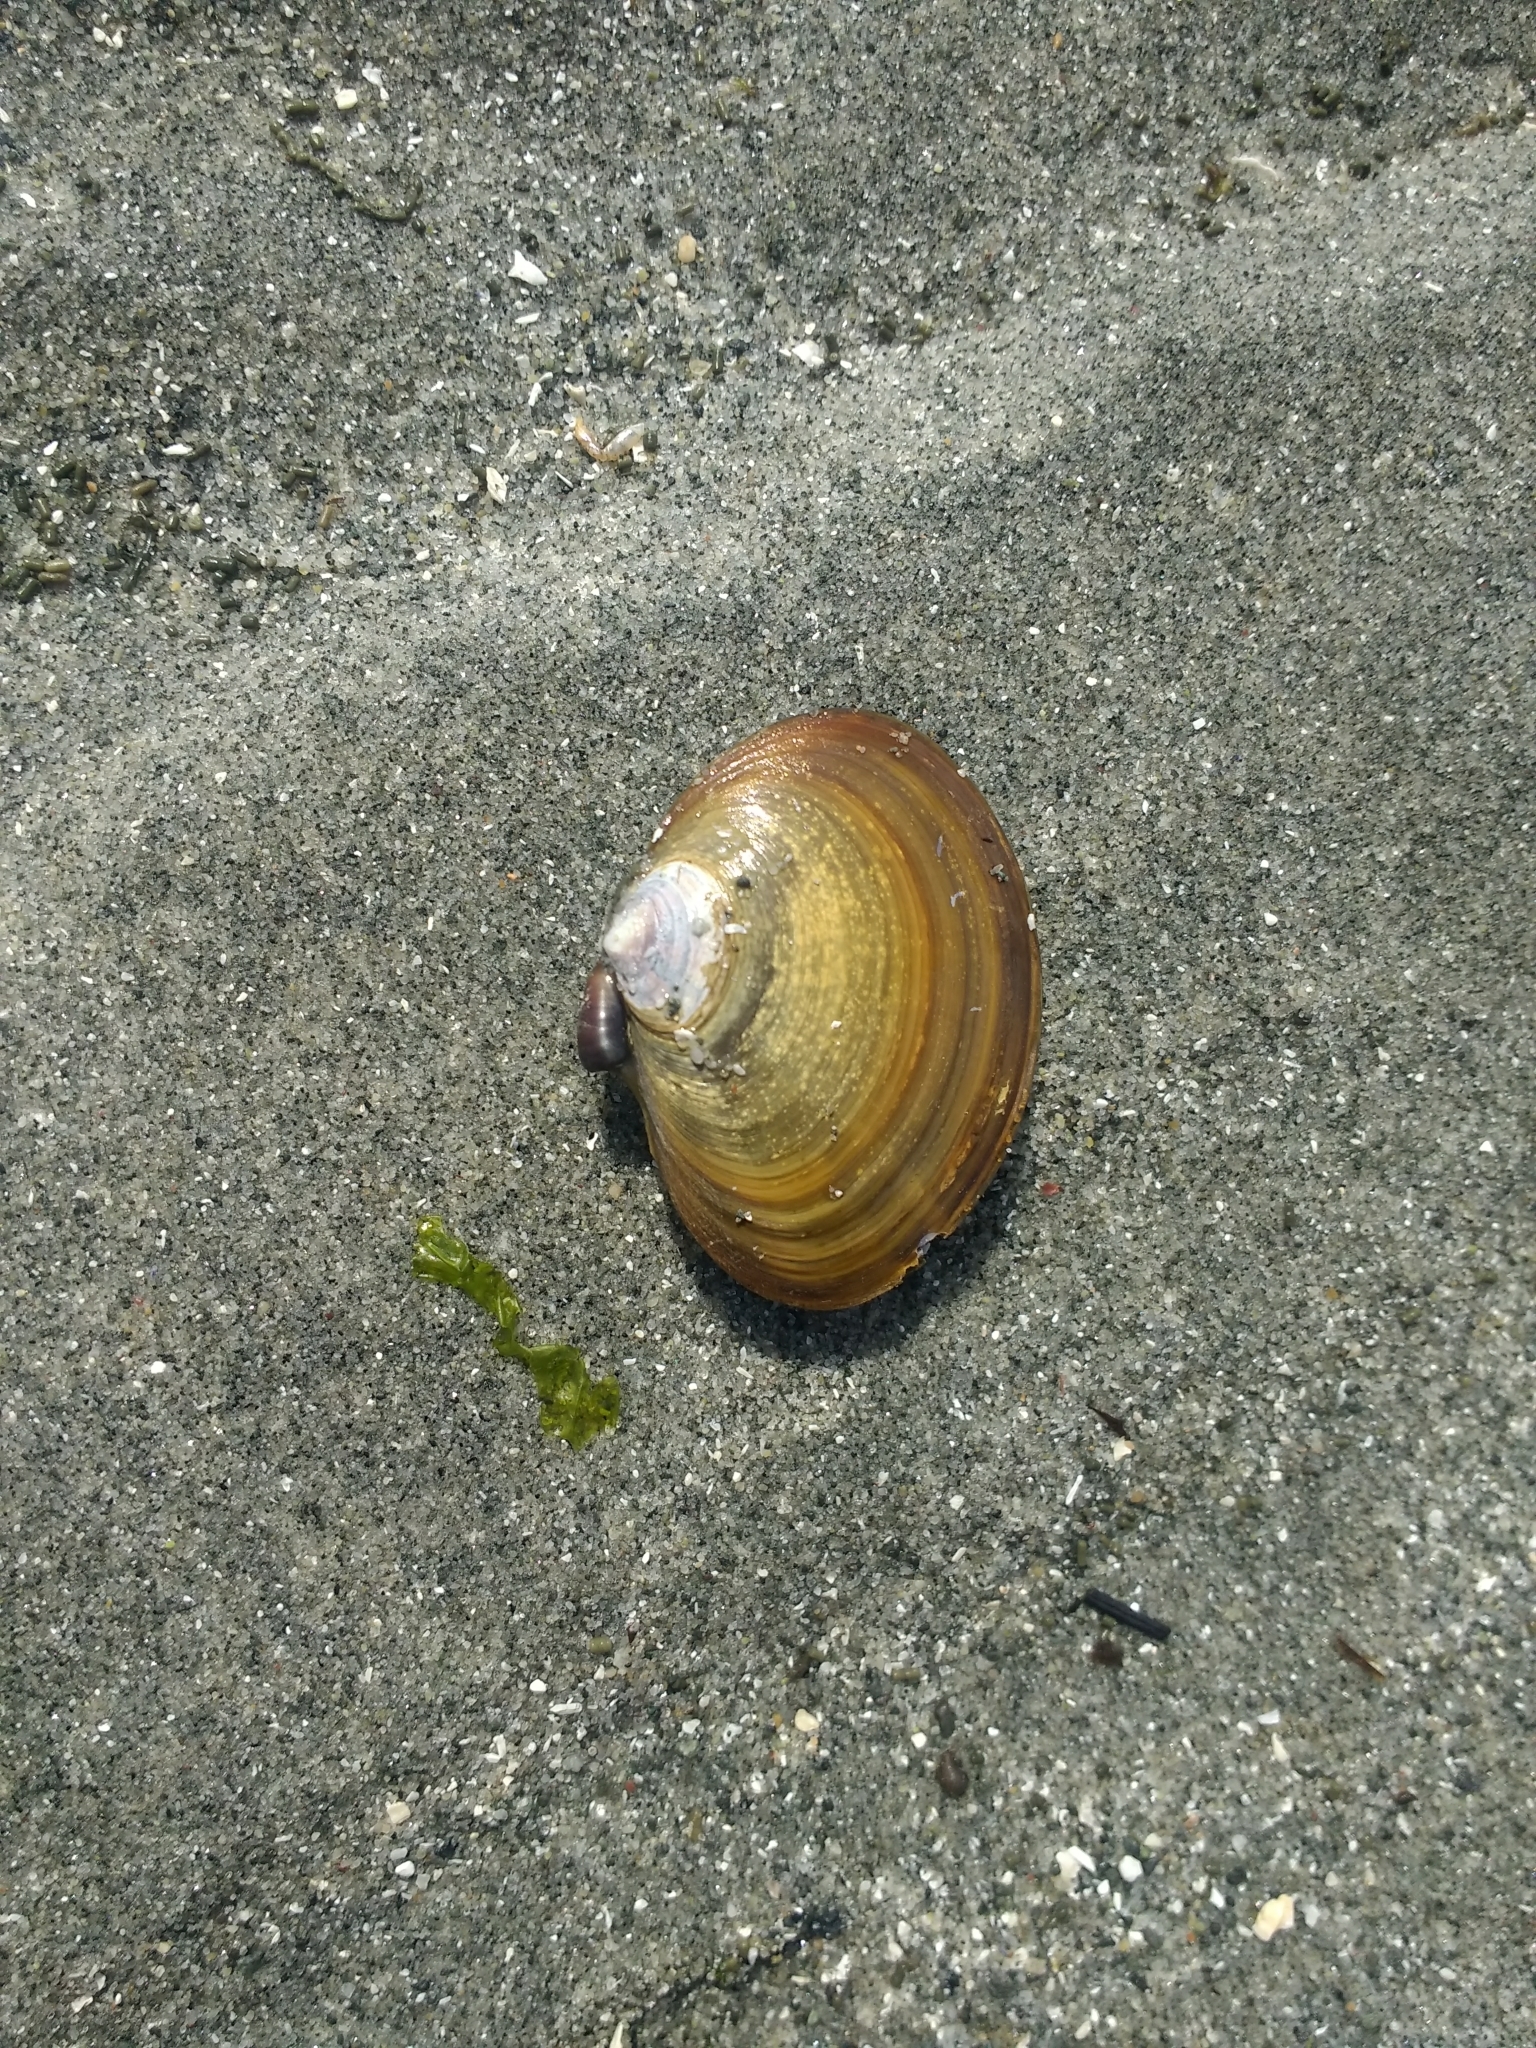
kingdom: Animalia
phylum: Mollusca
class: Bivalvia
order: Cardiida
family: Psammobiidae
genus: Nuttallia
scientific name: Nuttallia obscurata
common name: Purple mahogany-clam
